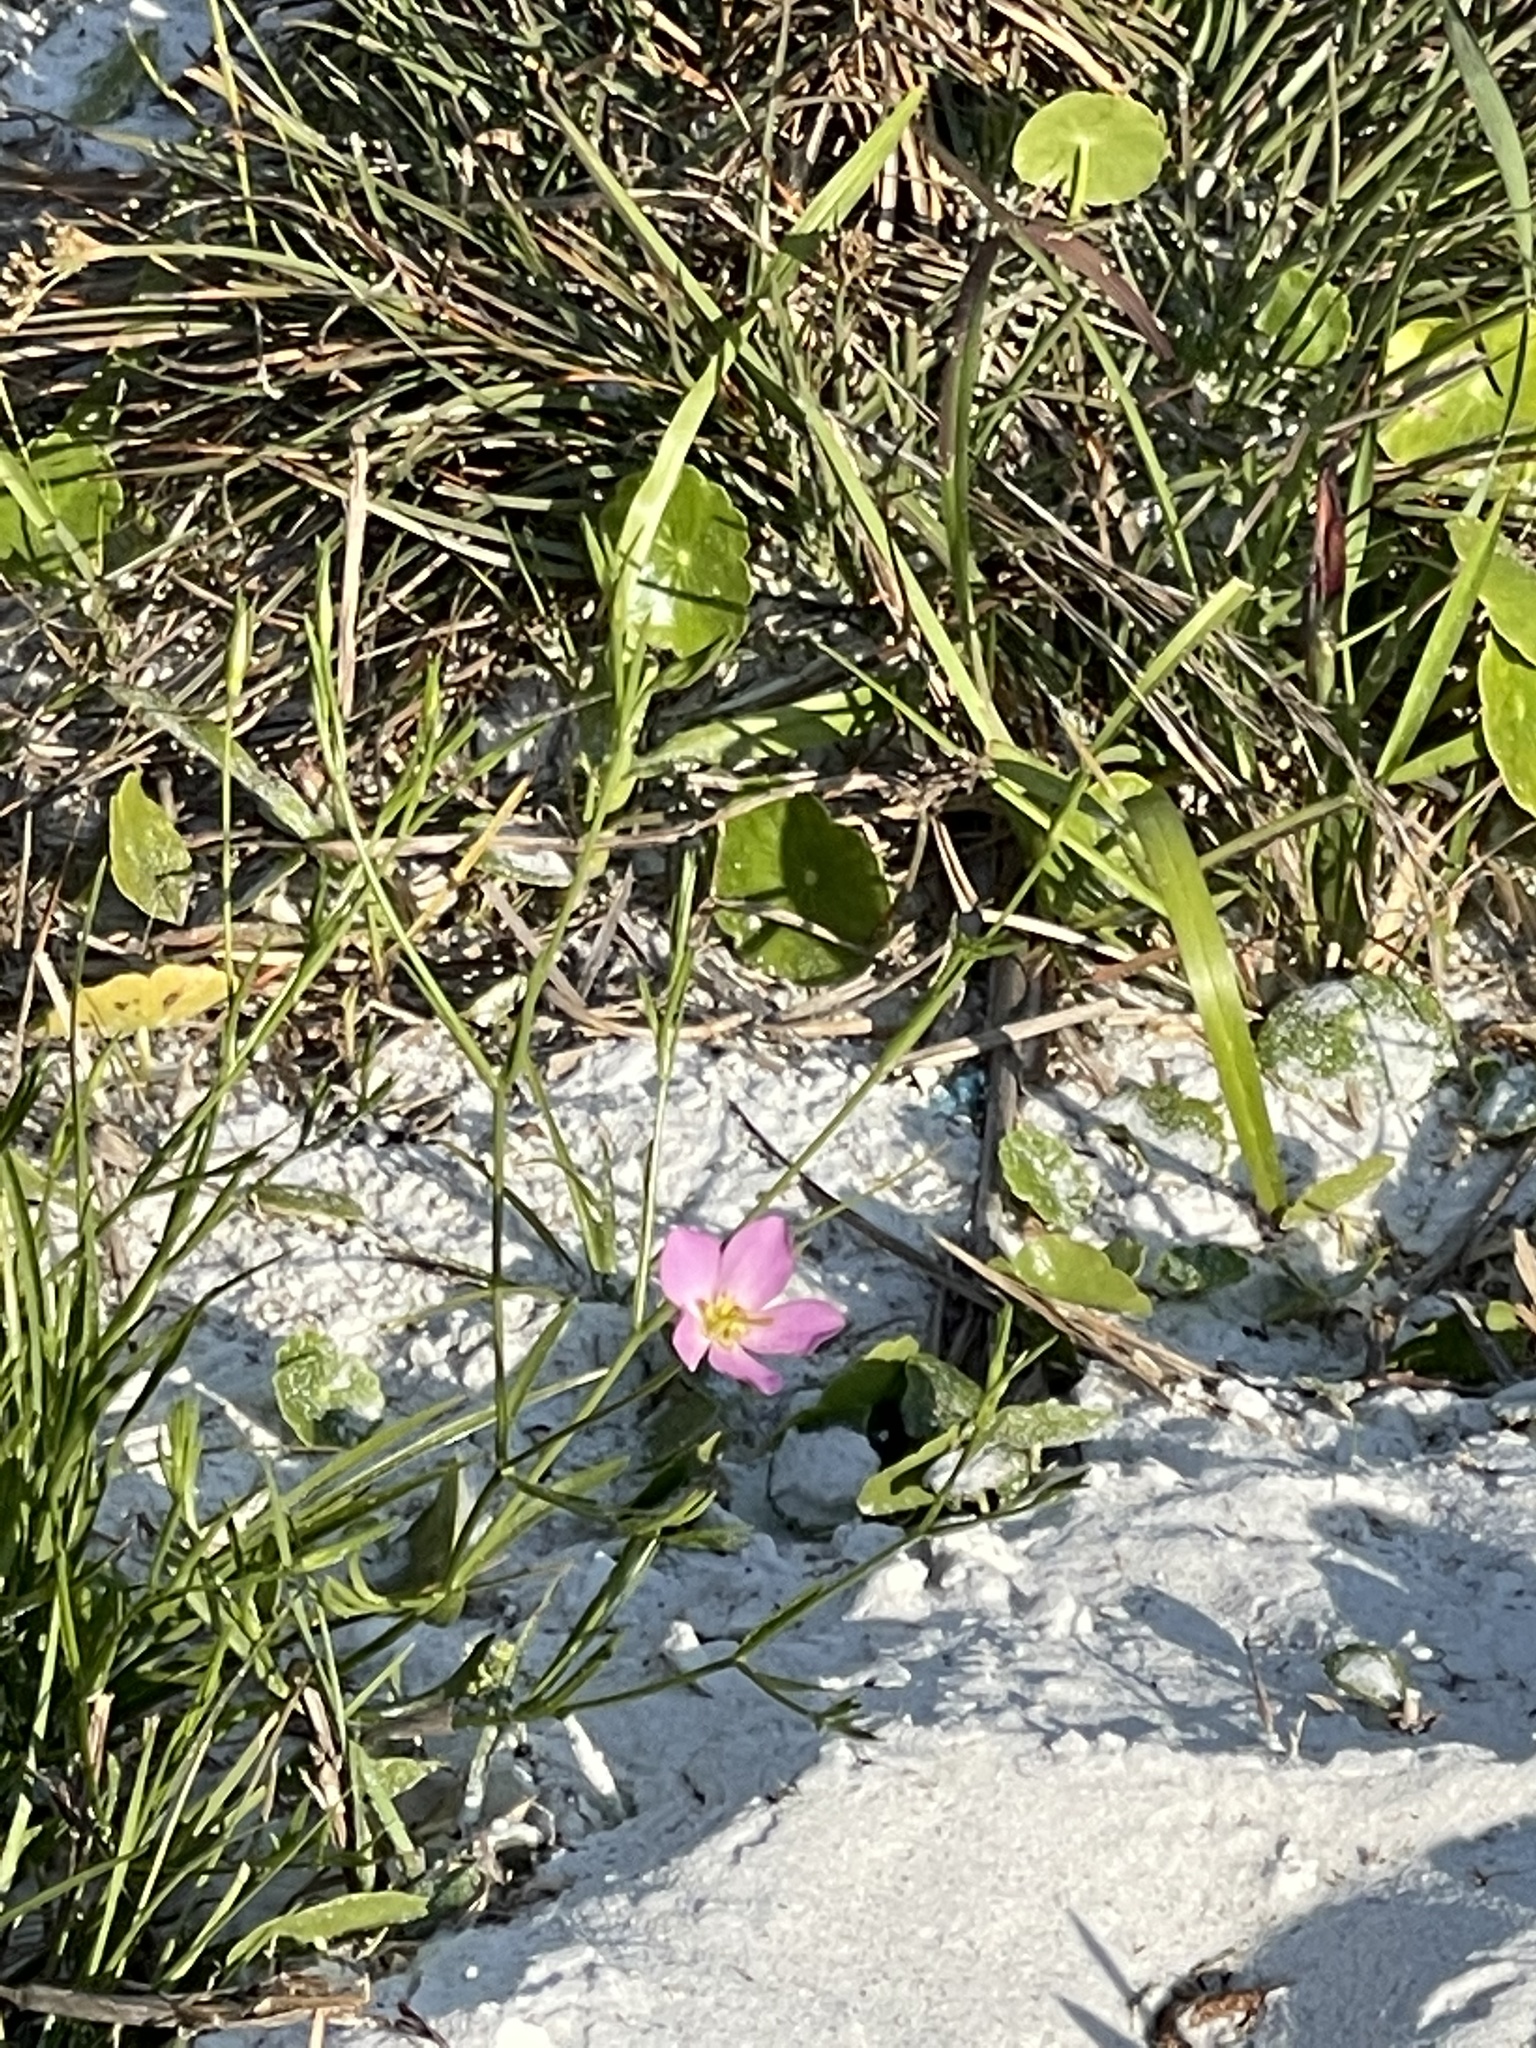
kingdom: Plantae
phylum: Tracheophyta
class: Magnoliopsida
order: Gentianales
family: Gentianaceae
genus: Sabatia
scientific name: Sabatia grandiflora
